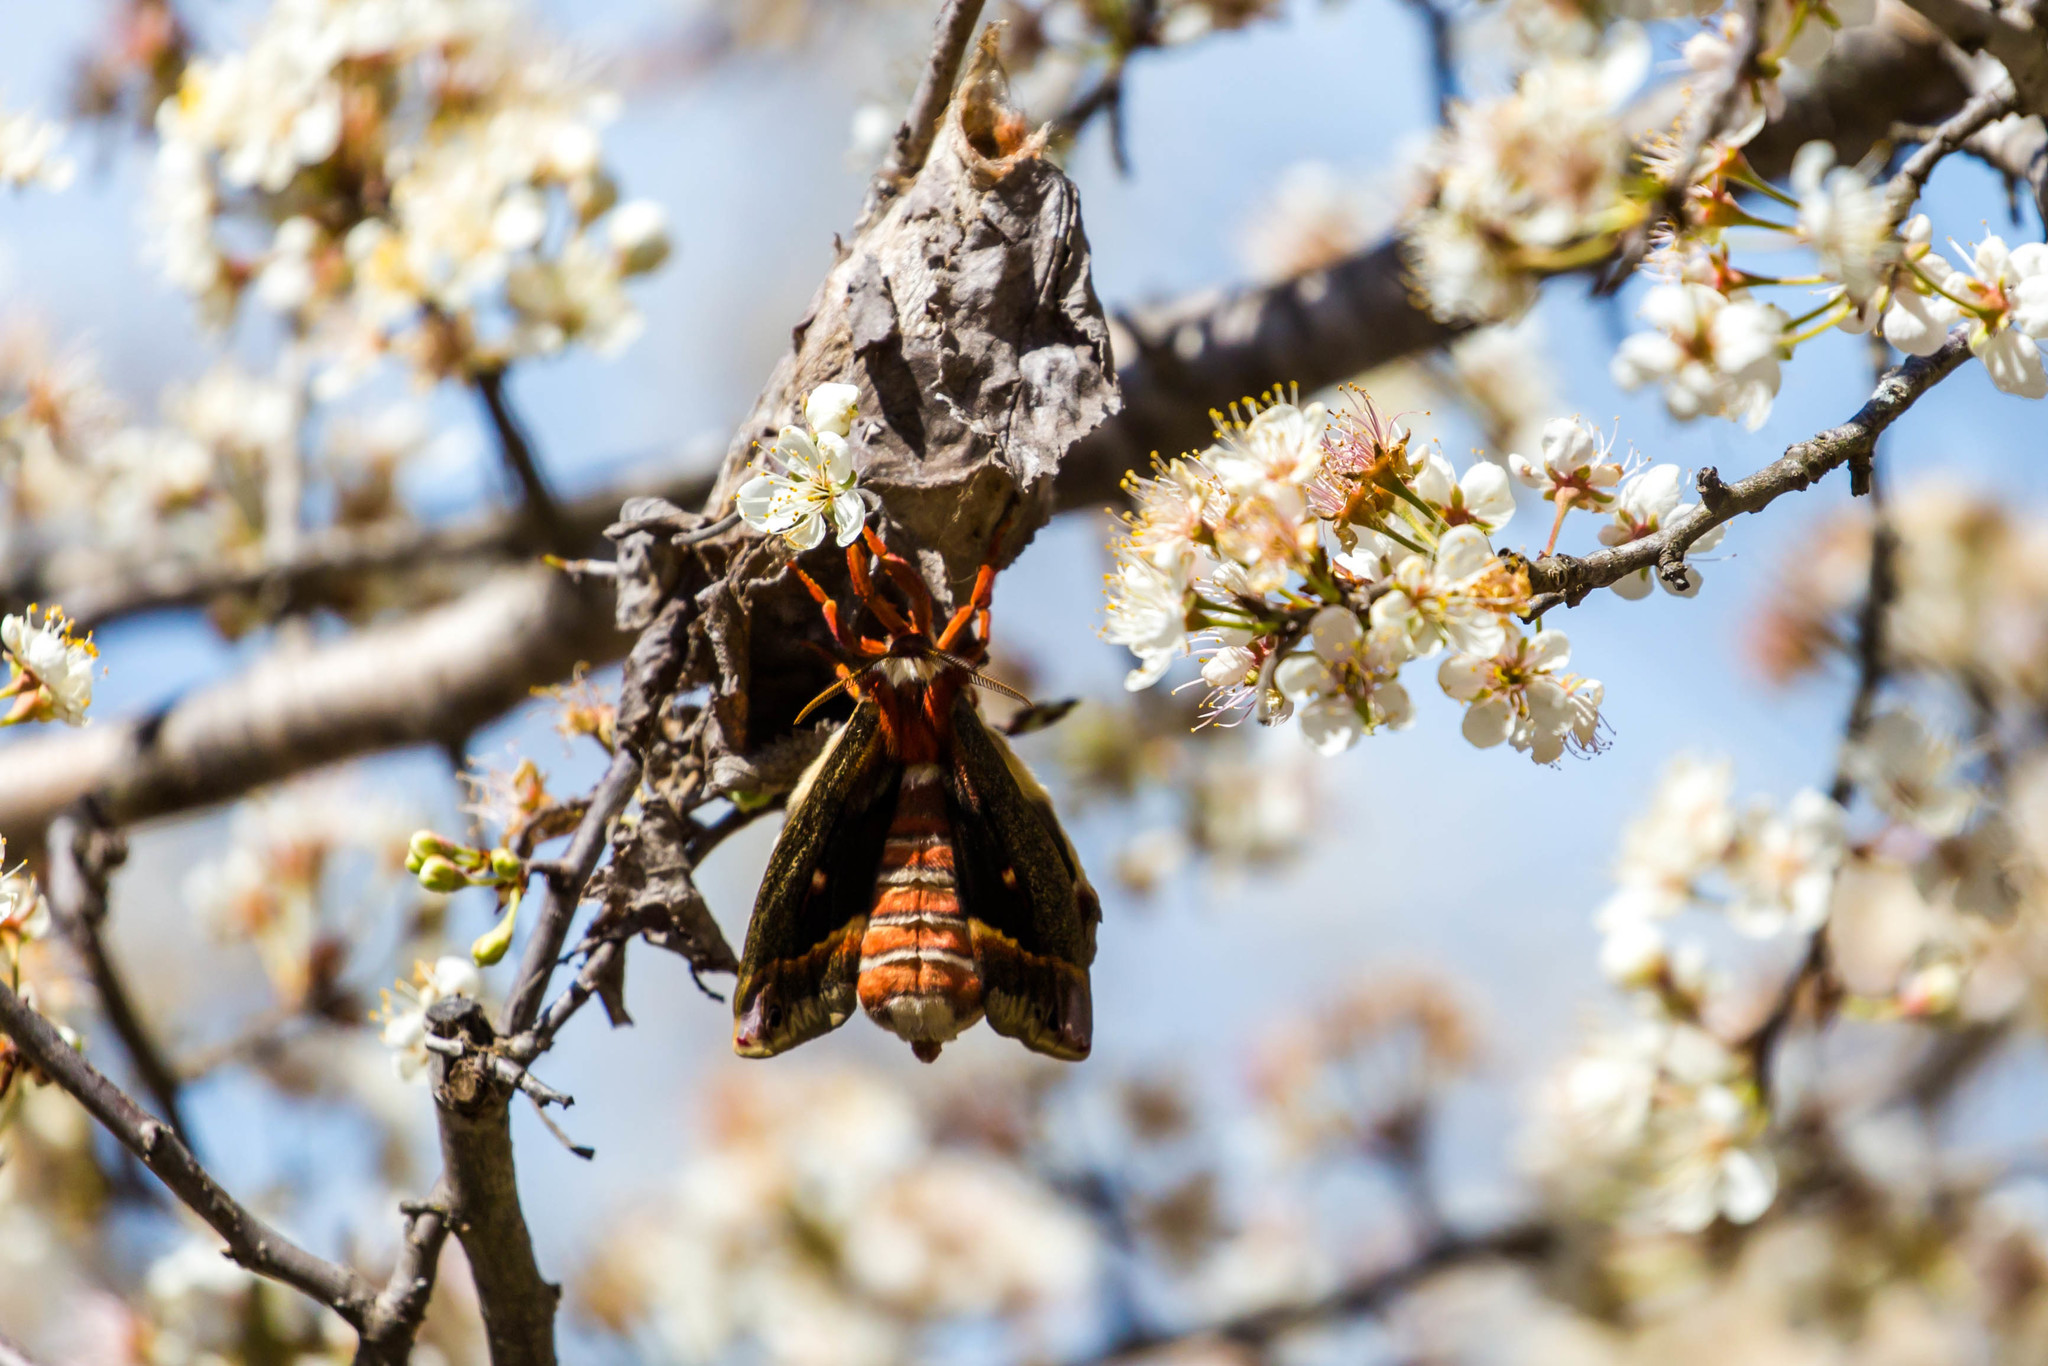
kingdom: Animalia
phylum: Arthropoda
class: Insecta
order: Lepidoptera
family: Saturniidae
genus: Hyalophora
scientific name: Hyalophora cecropia
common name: Cecropia silkmoth
